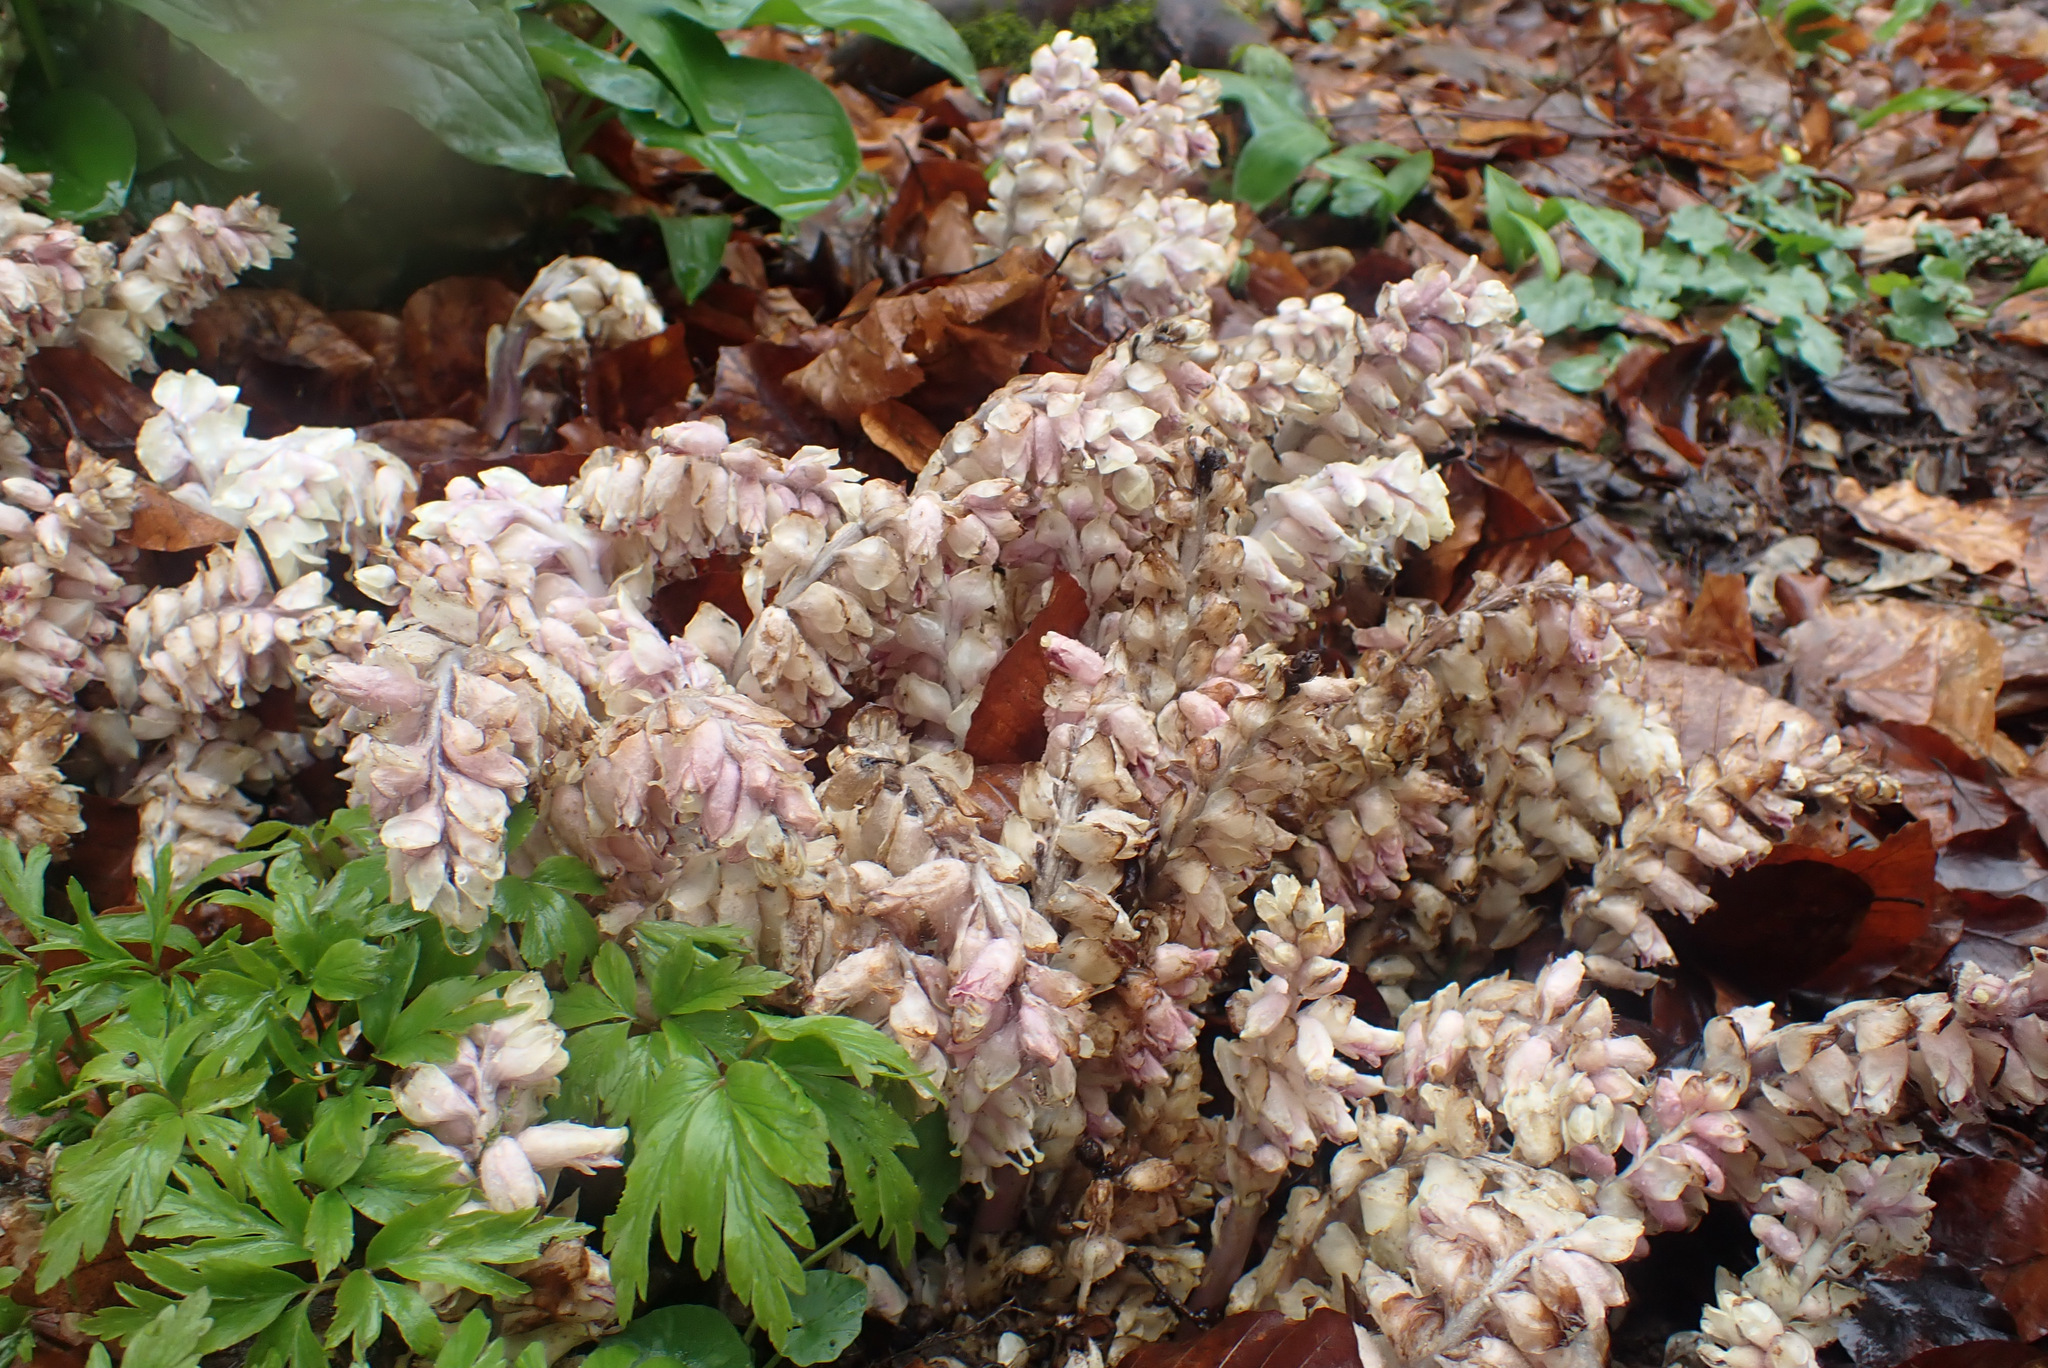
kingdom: Plantae
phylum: Tracheophyta
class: Magnoliopsida
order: Lamiales
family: Orobanchaceae
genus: Lathraea
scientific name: Lathraea squamaria
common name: Toothwort
